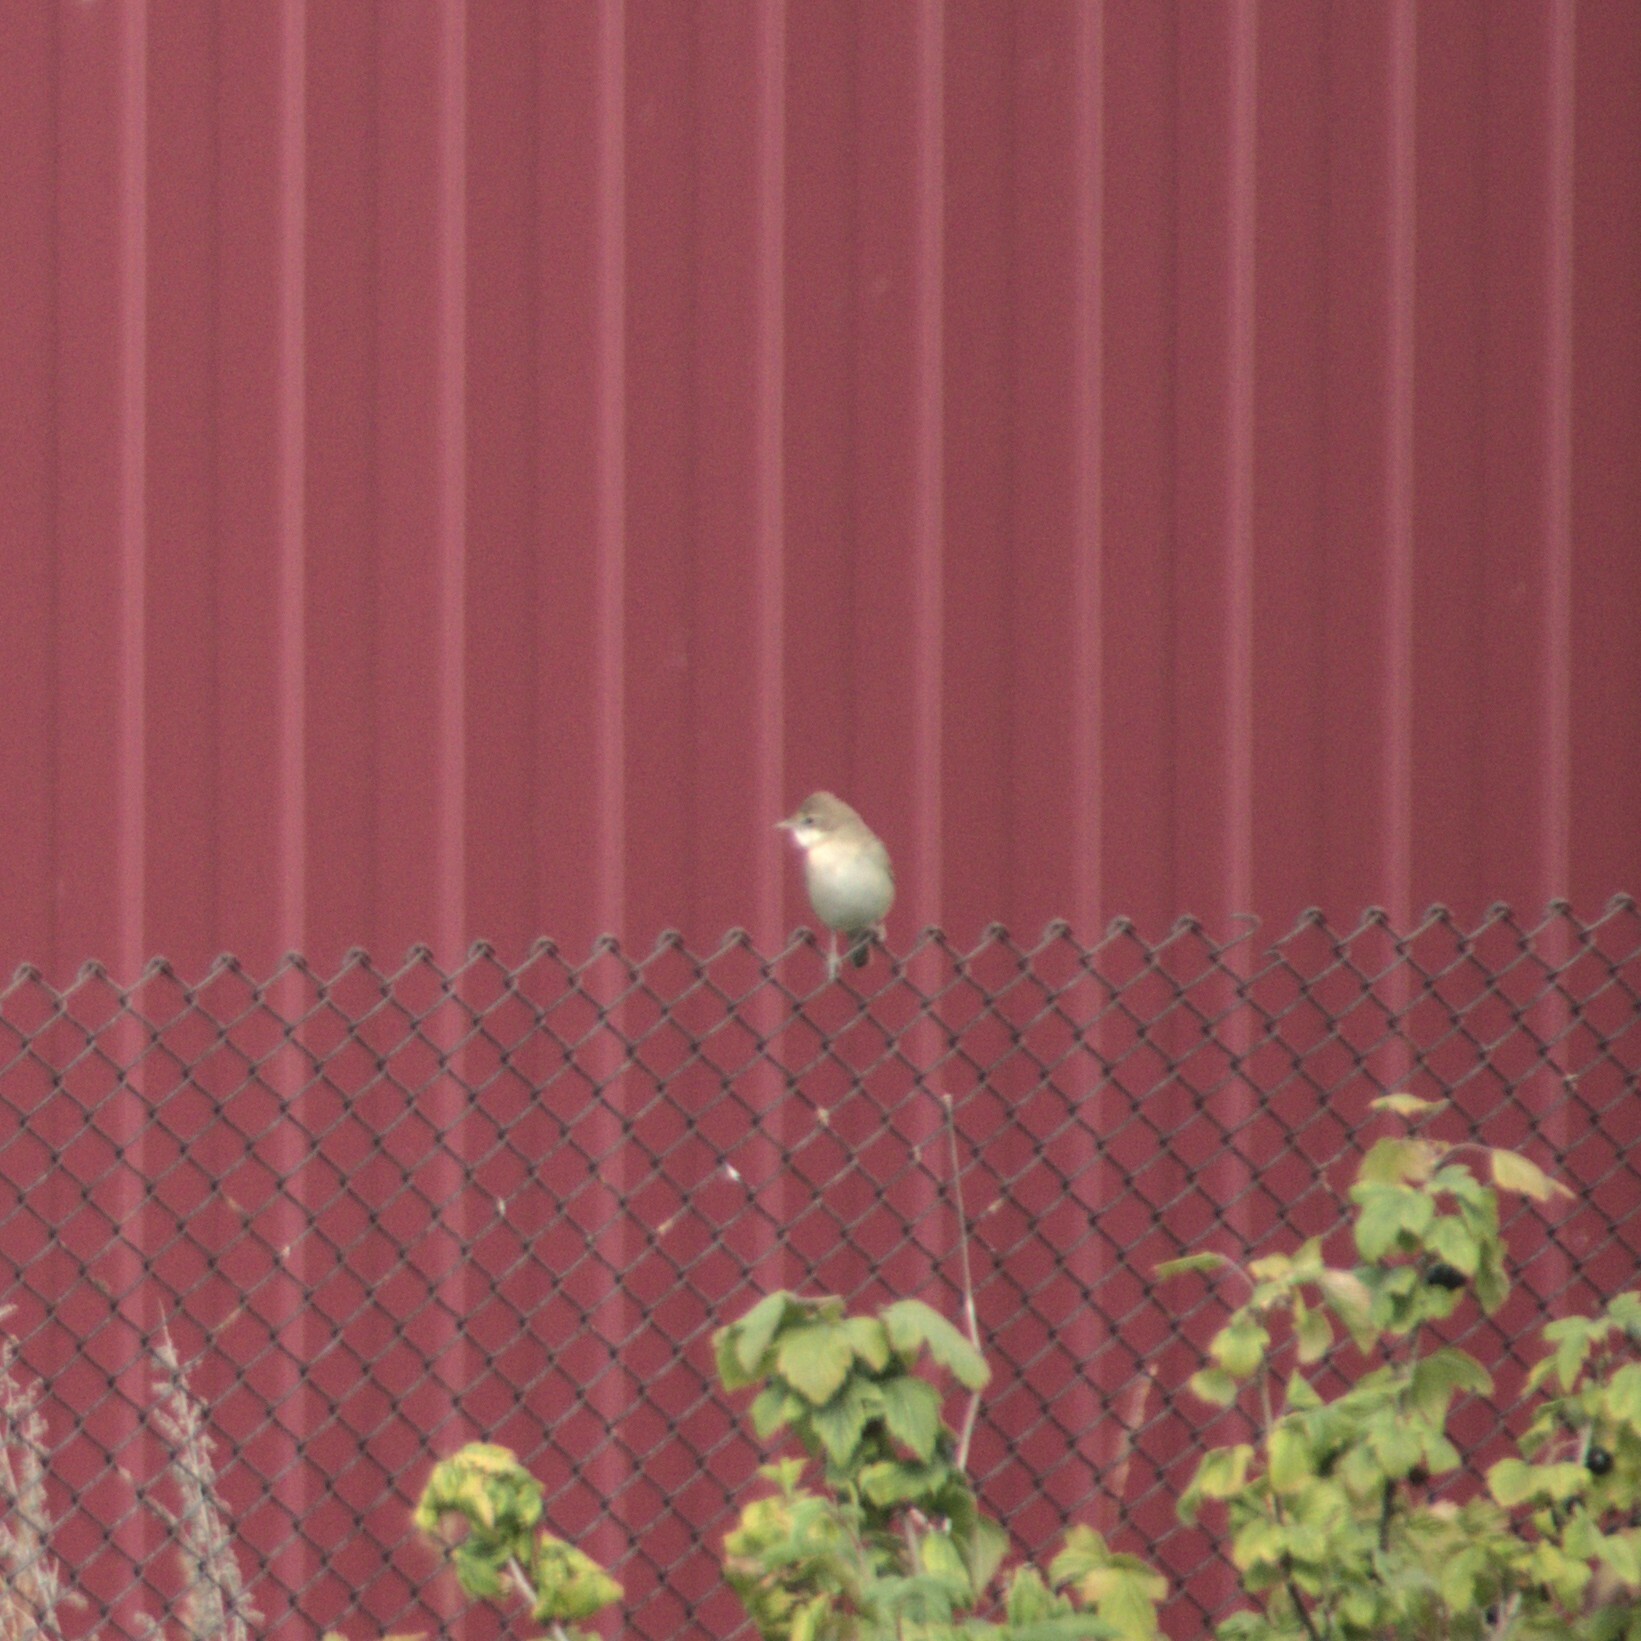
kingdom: Animalia
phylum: Chordata
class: Aves
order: Passeriformes
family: Sylviidae
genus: Sylvia
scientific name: Sylvia communis
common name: Common whitethroat
